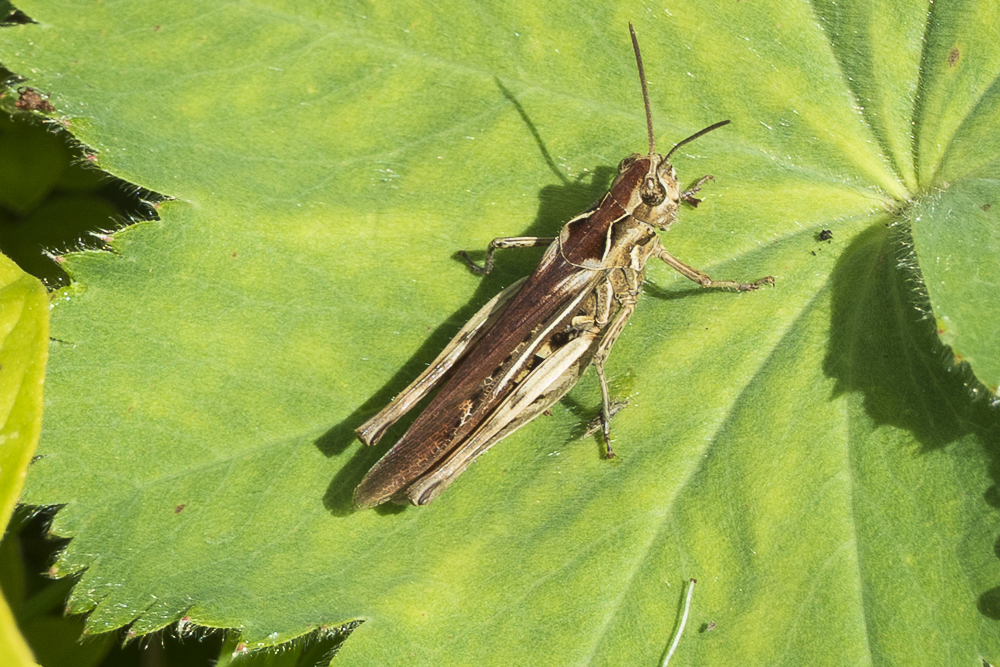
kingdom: Animalia
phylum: Arthropoda
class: Insecta
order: Orthoptera
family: Acrididae
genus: Chorthippus
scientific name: Chorthippus brunneus
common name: Field grasshopper
